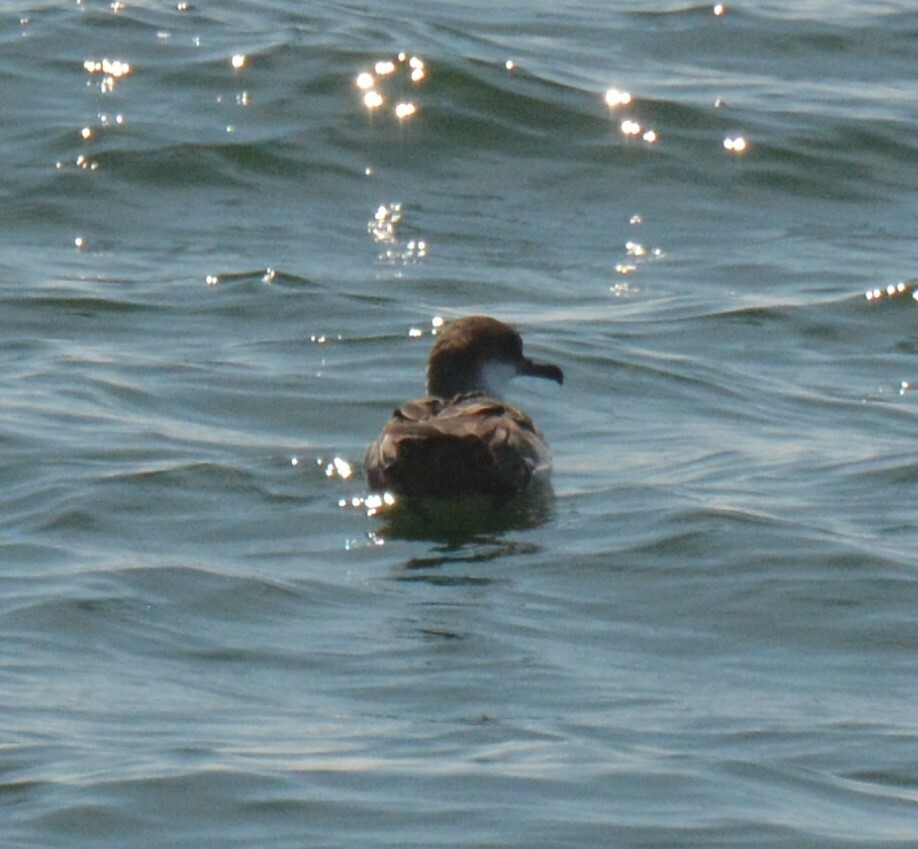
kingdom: Animalia
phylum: Chordata
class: Aves
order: Procellariiformes
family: Procellariidae
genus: Puffinus
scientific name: Puffinus gravis
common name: Great shearwater
